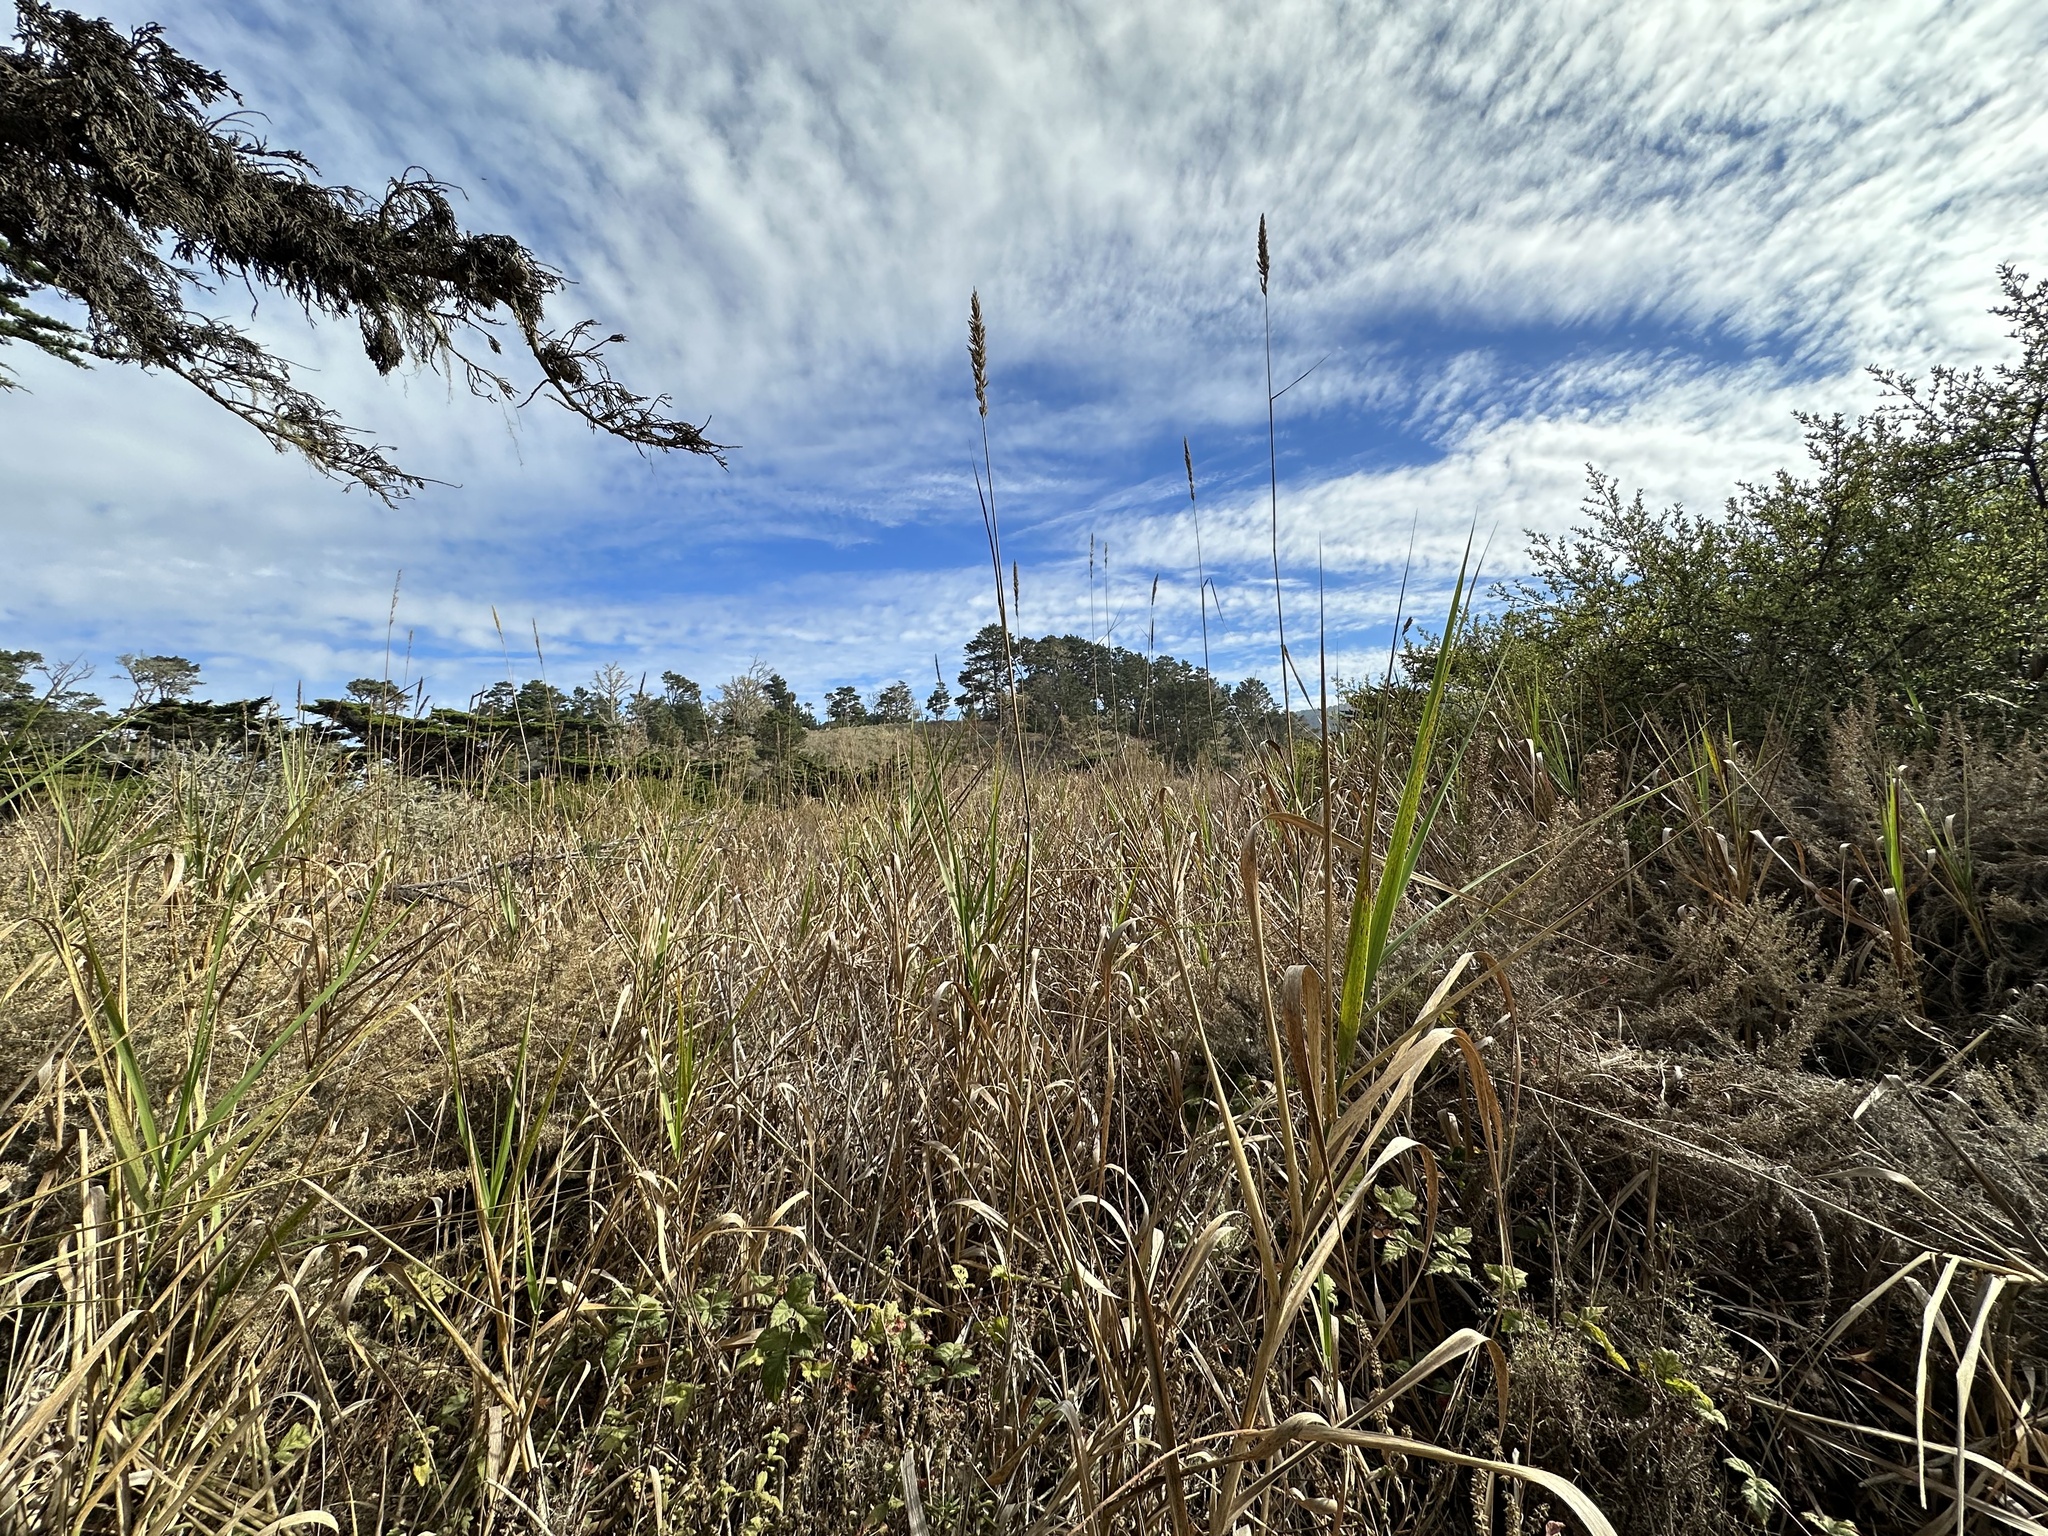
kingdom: Plantae
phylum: Tracheophyta
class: Liliopsida
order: Poales
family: Poaceae
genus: Leymus
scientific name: Leymus condensatus
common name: Giant wild rye
